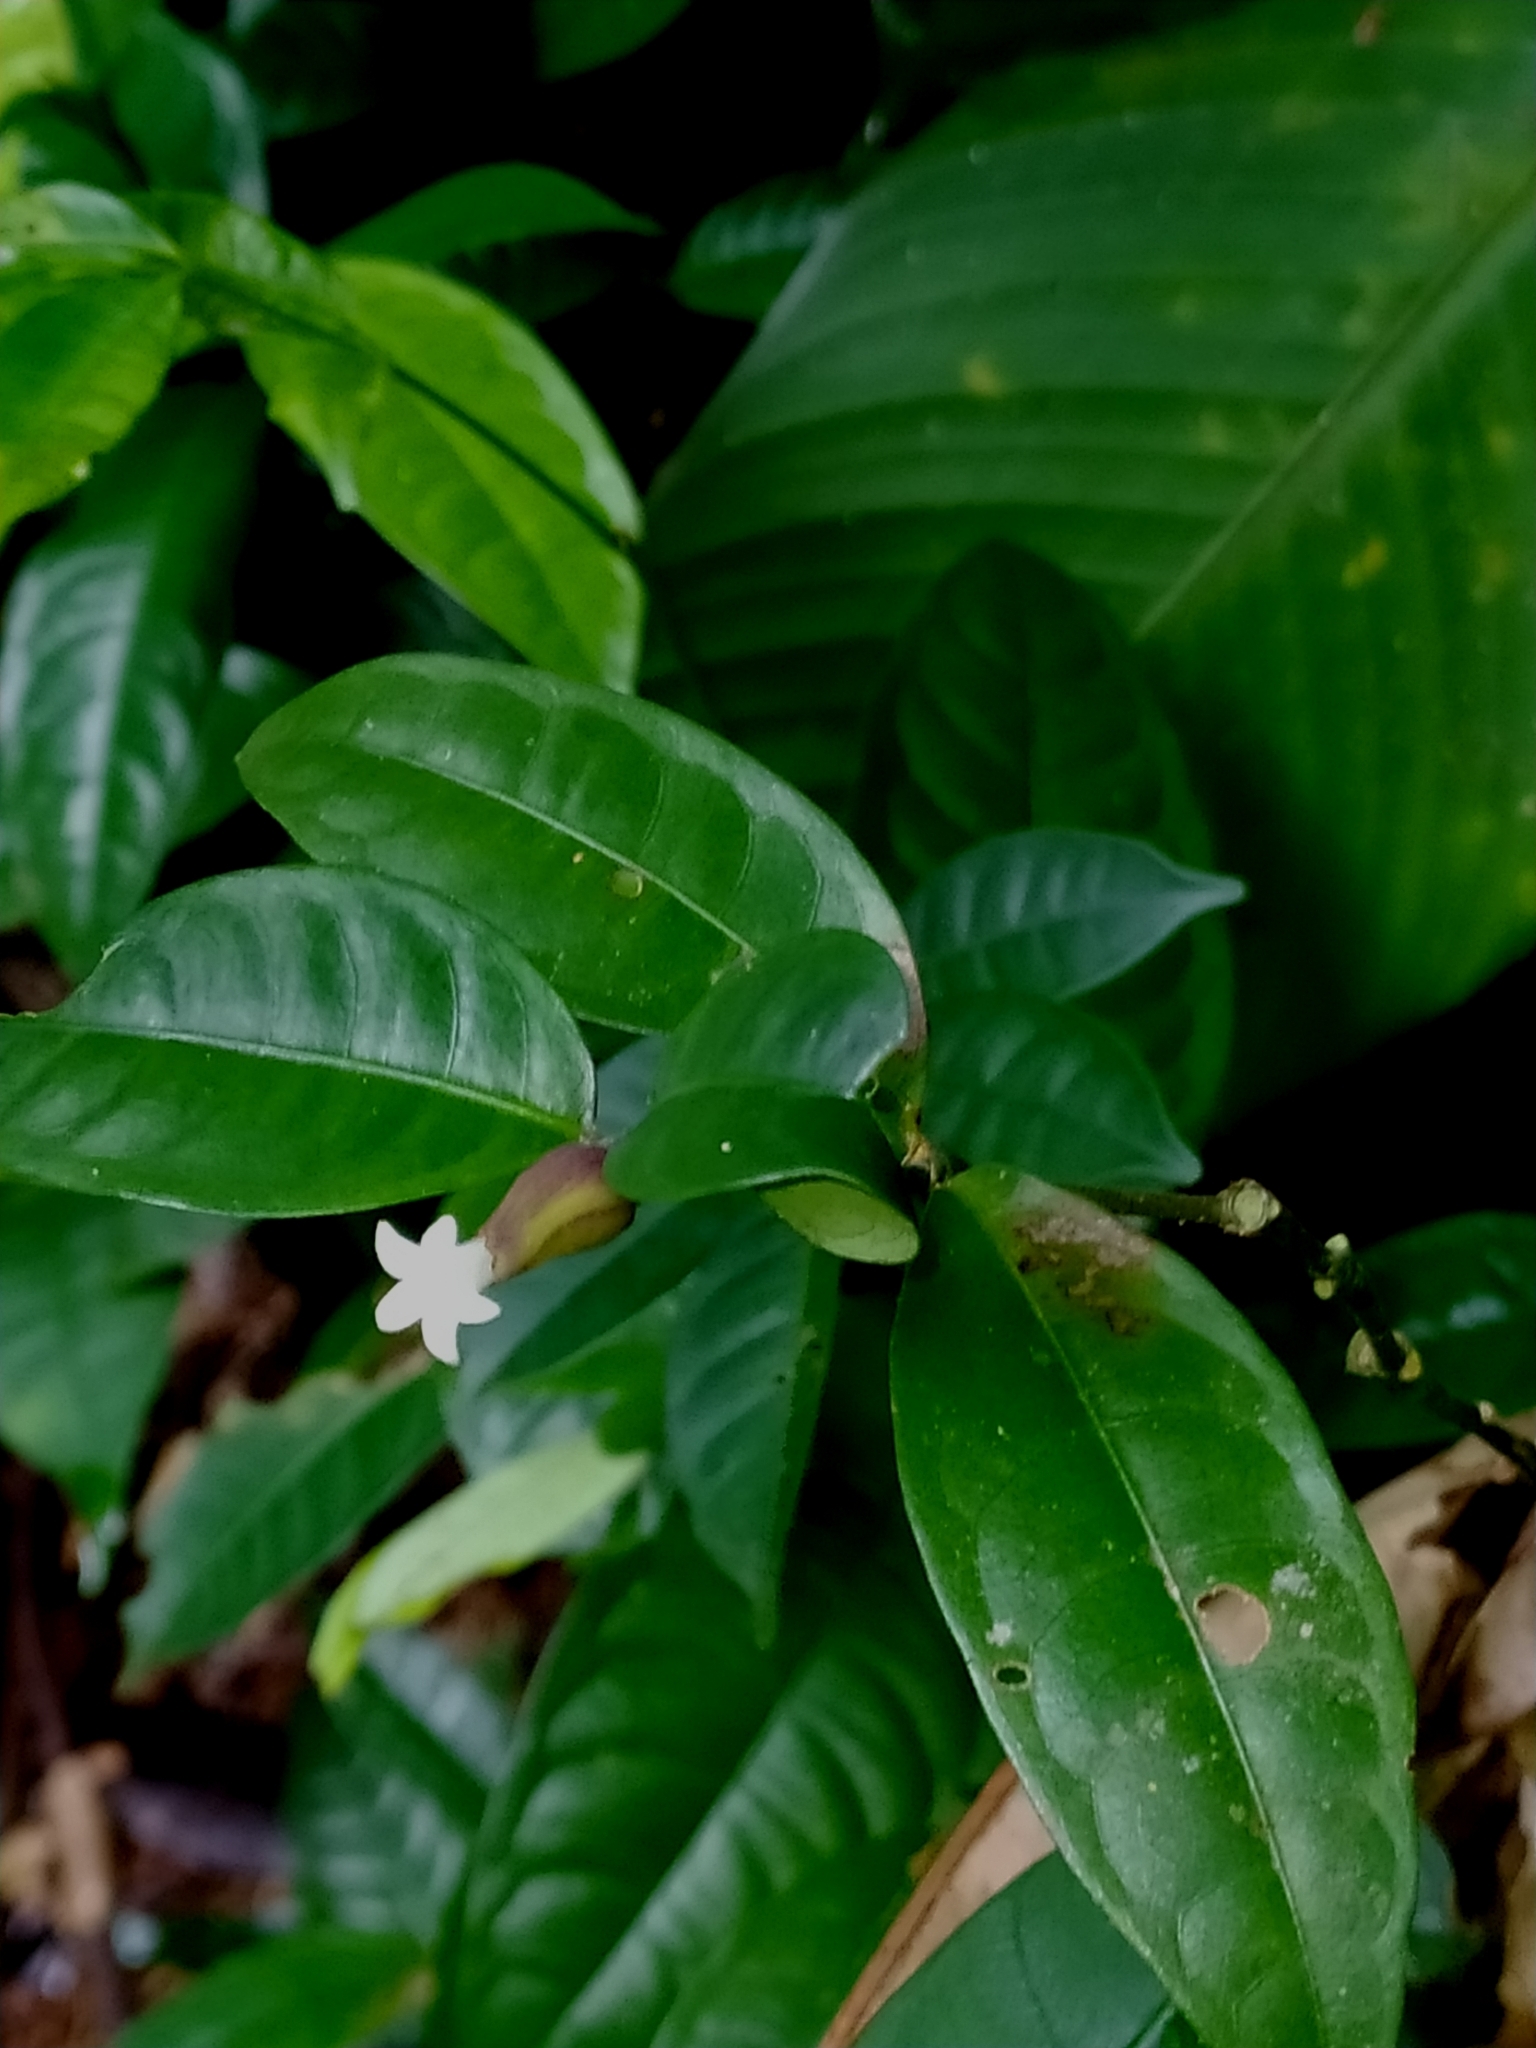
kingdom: Plantae
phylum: Tracheophyta
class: Magnoliopsida
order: Gentianales
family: Rubiaceae
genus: Palicourea
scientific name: Palicourea oblonga
